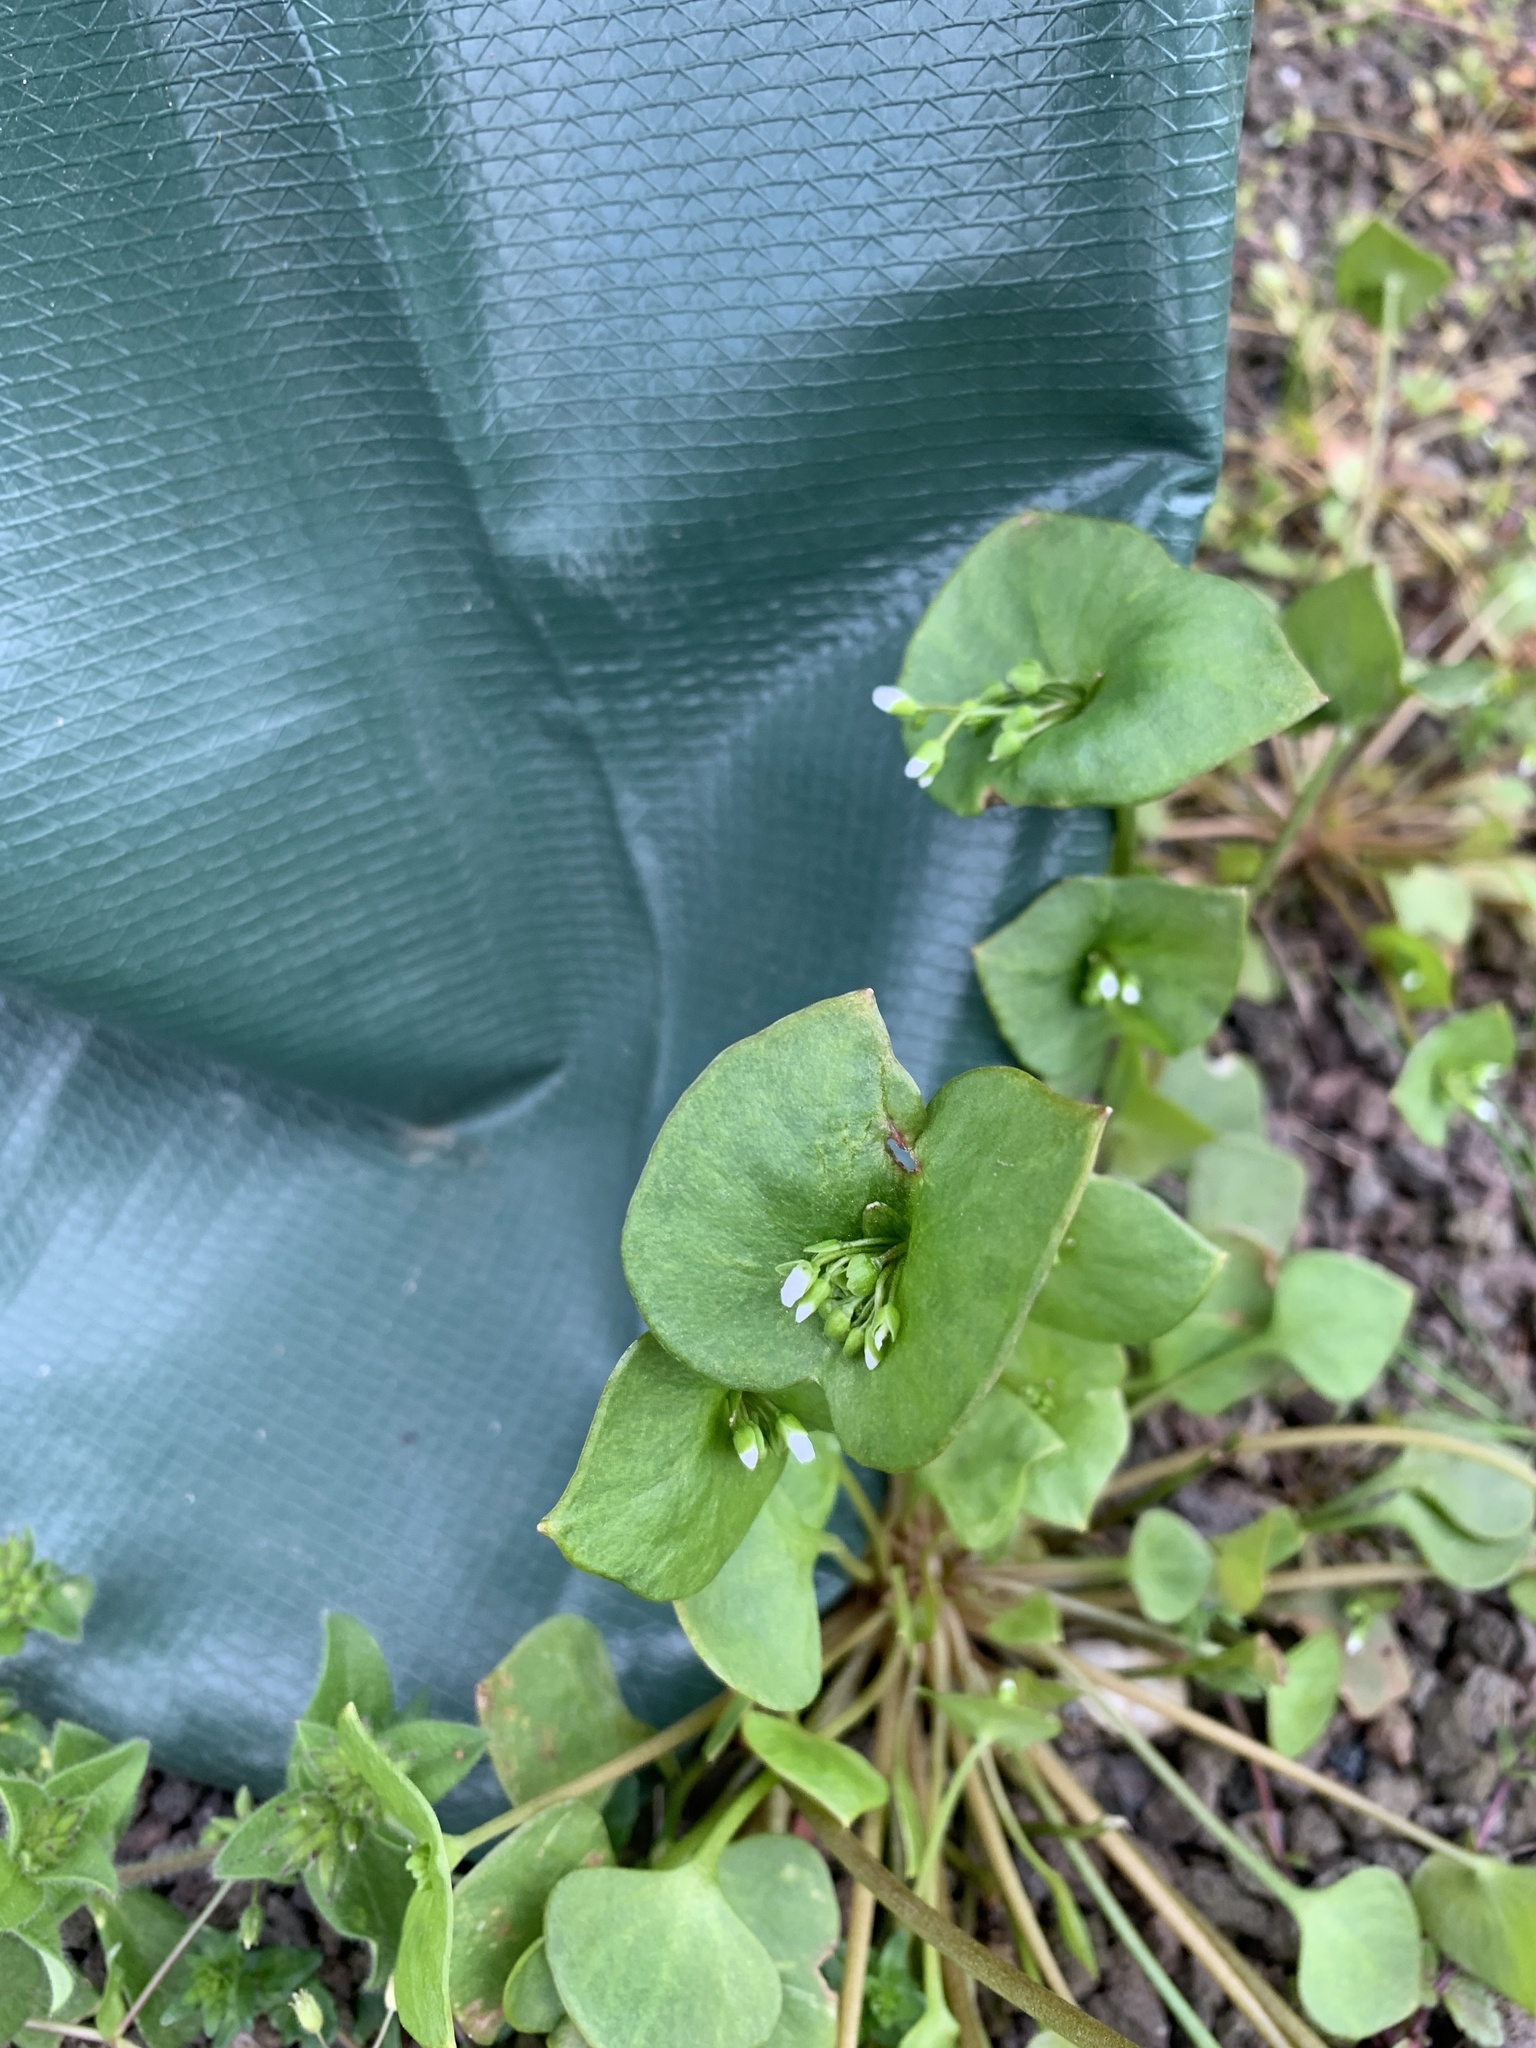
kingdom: Plantae
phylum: Tracheophyta
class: Magnoliopsida
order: Caryophyllales
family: Montiaceae
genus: Claytonia
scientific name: Claytonia perfoliata
